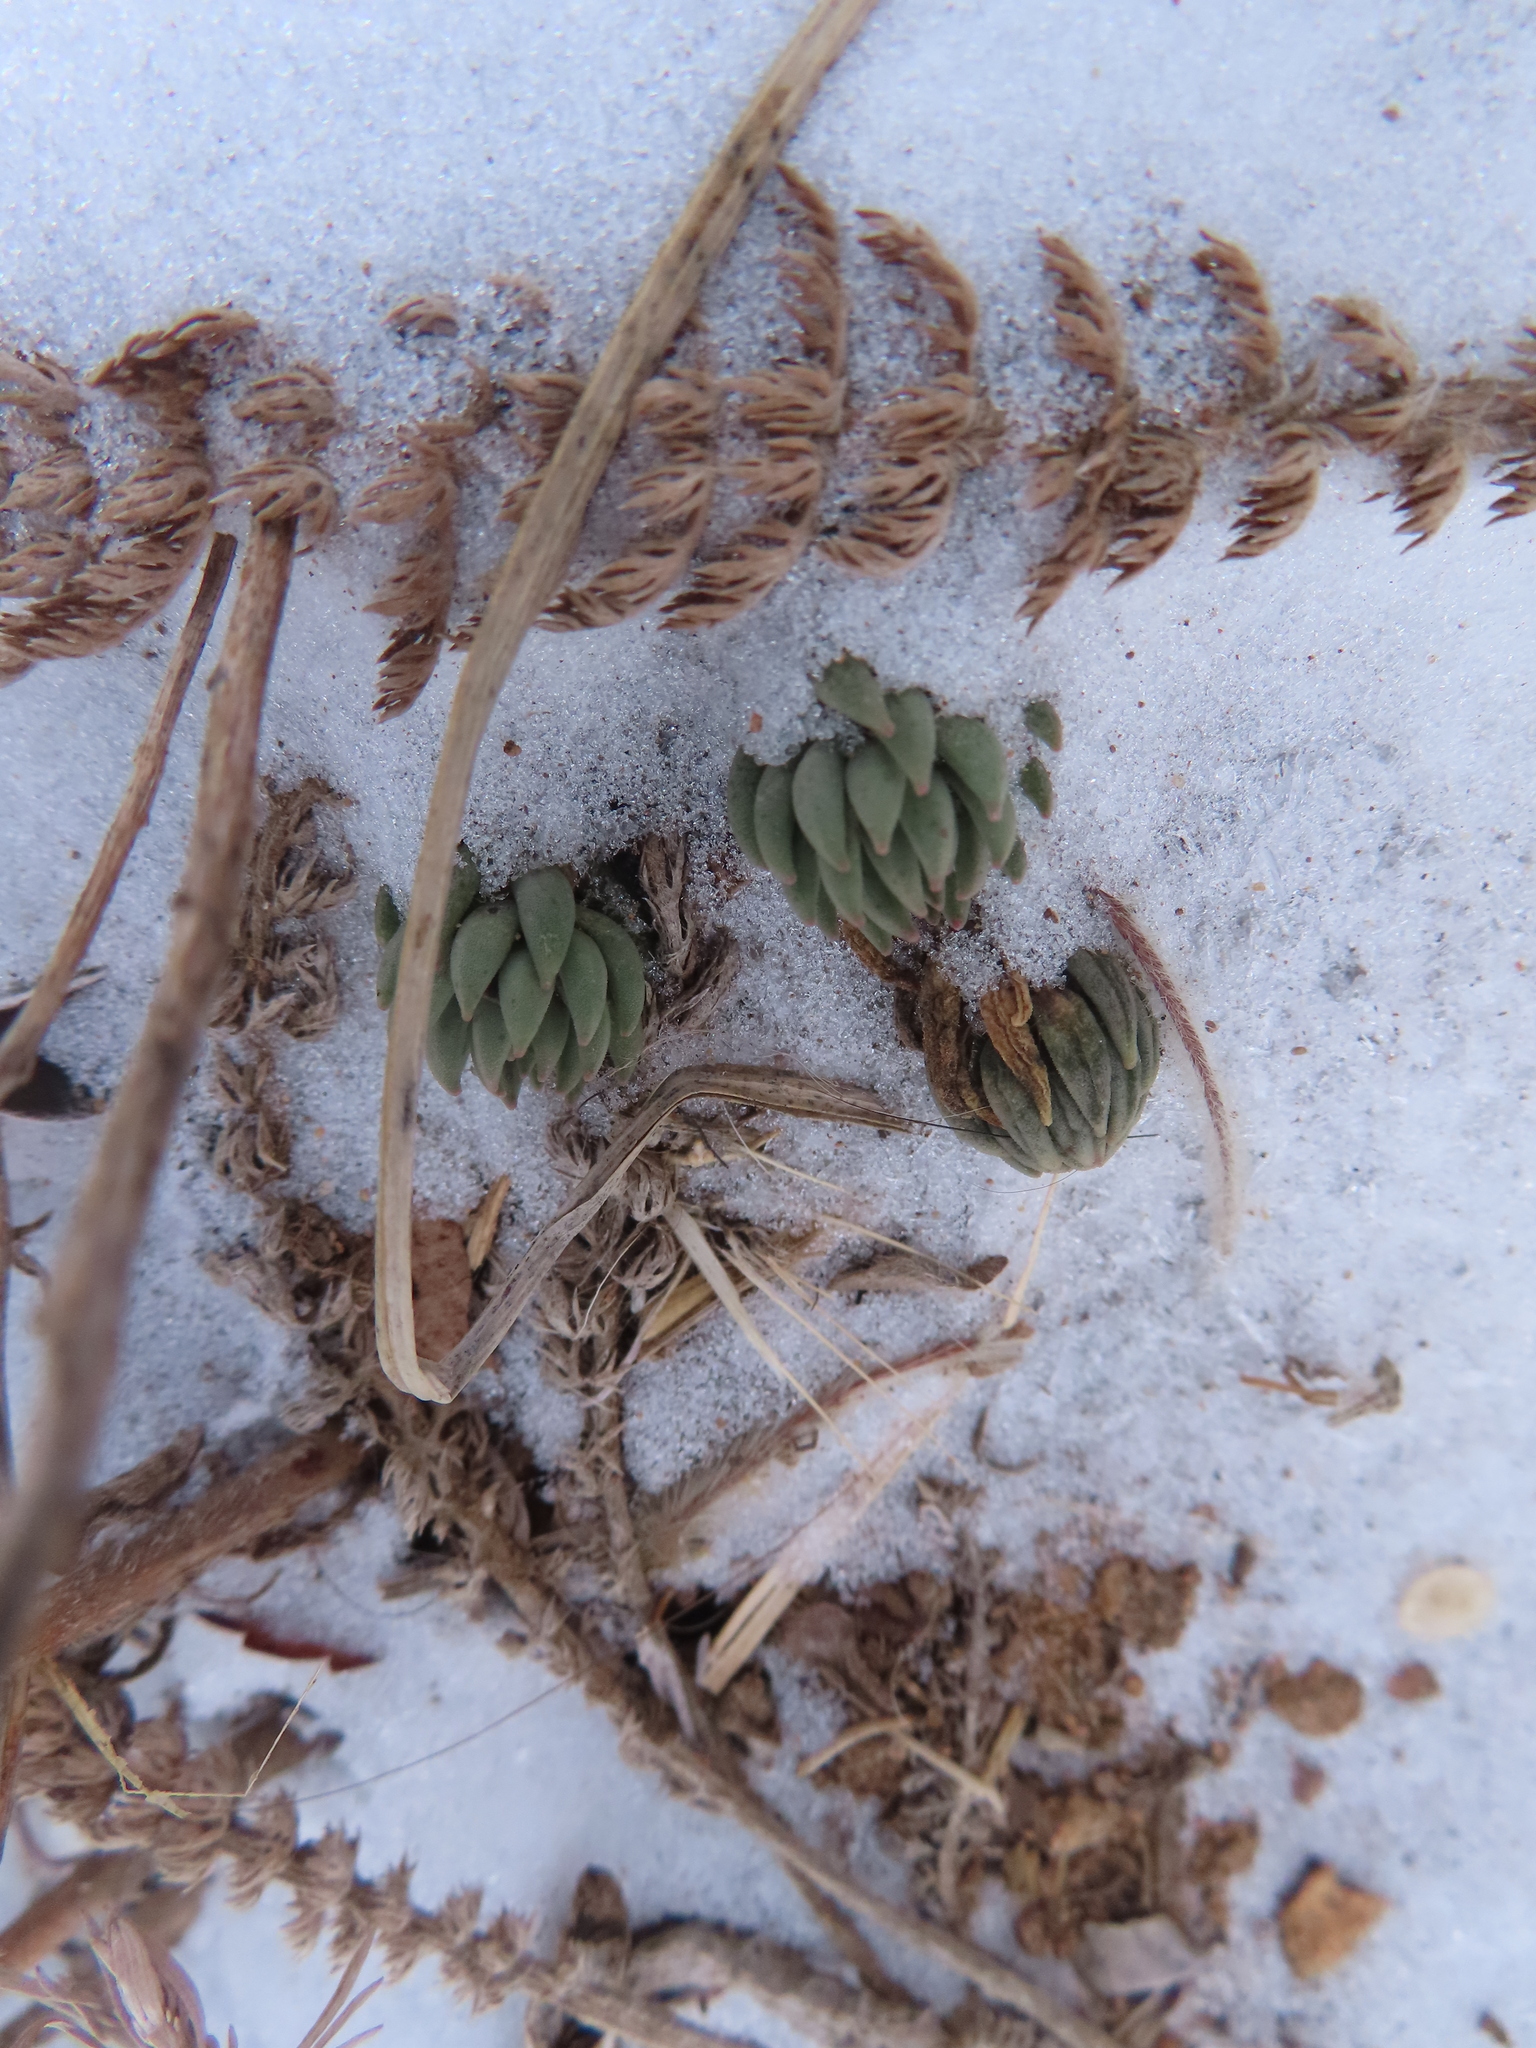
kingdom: Plantae
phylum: Tracheophyta
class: Magnoliopsida
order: Saxifragales
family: Crassulaceae
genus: Sedum
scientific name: Sedum lanceolatum
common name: Common stonecrop
